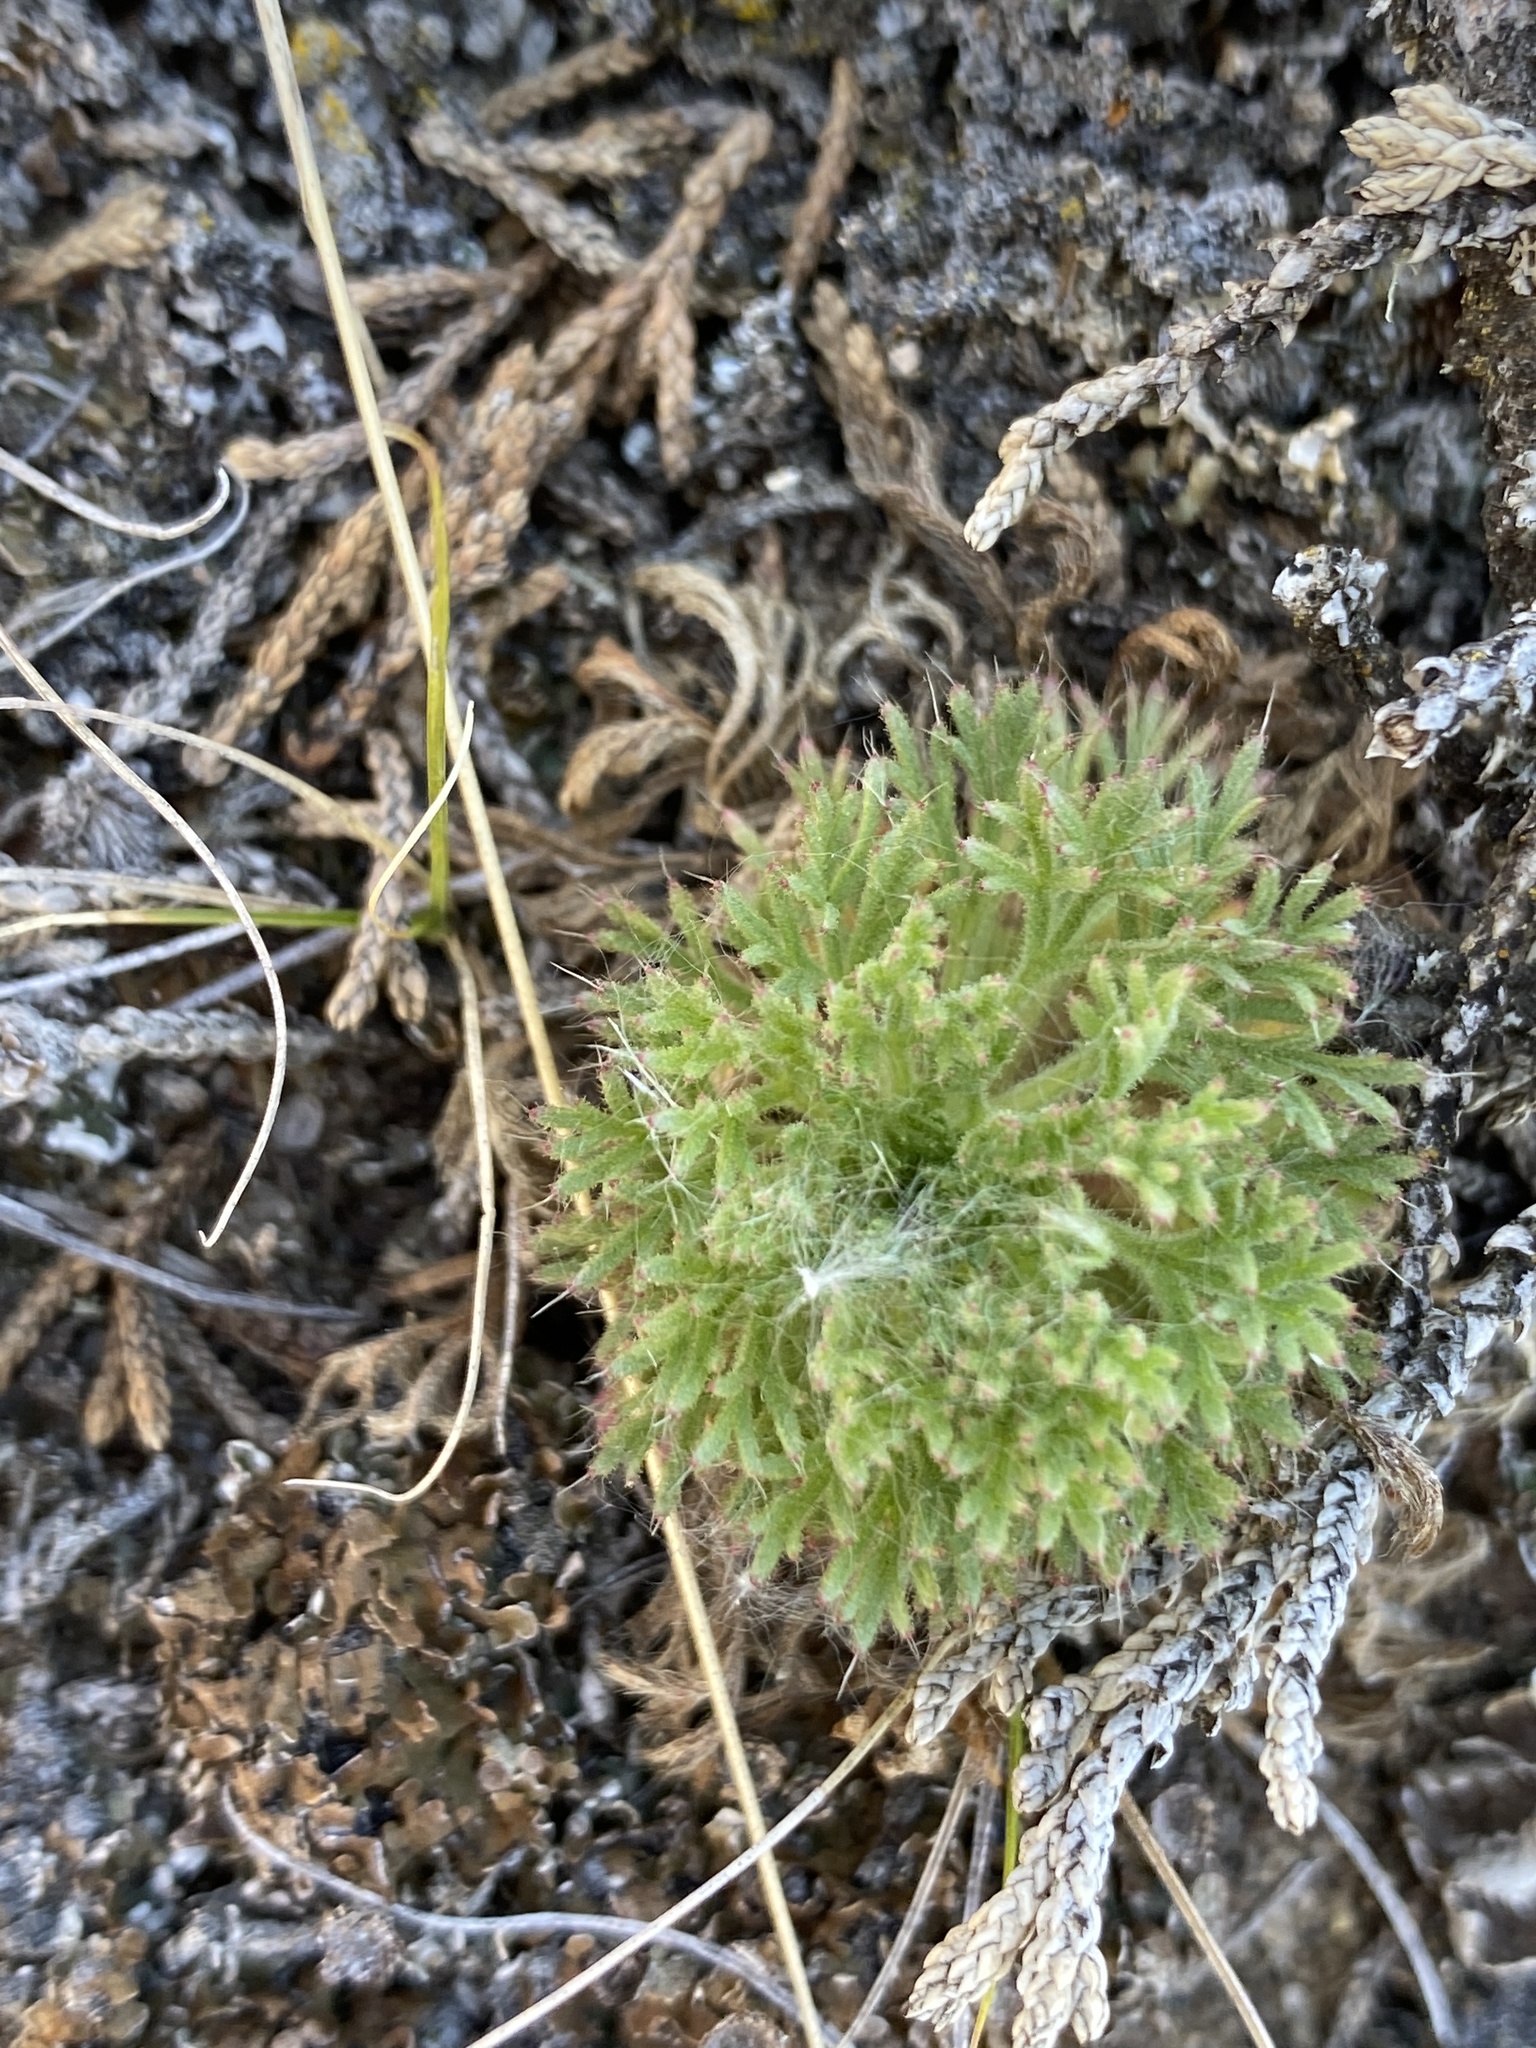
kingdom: Plantae
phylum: Tracheophyta
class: Magnoliopsida
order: Rosales
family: Rosaceae
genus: Chamaerhodos
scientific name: Chamaerhodos erecta
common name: American chamaerhodos
